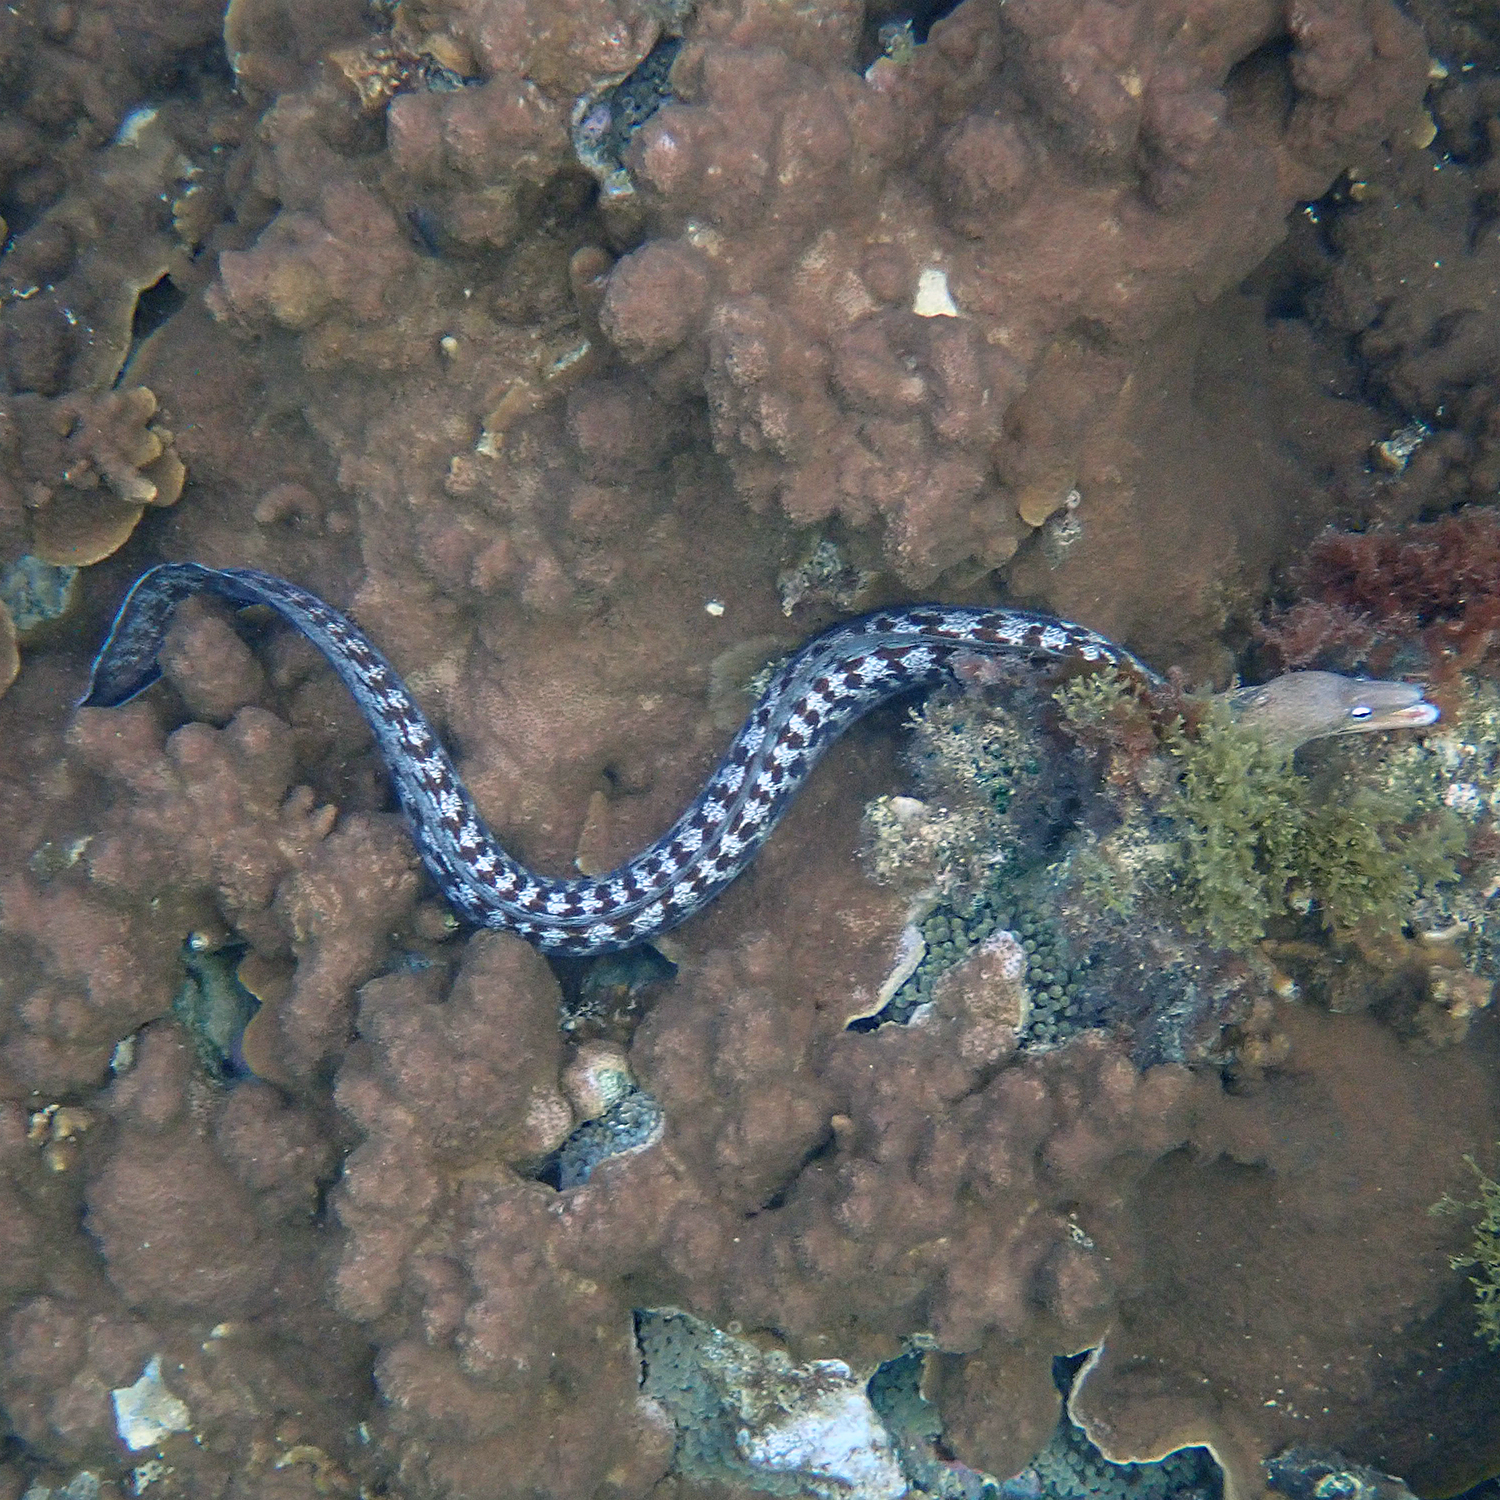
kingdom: Animalia
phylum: Chordata
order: Anguilliformes
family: Muraenidae
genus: Gymnothorax
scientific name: Gymnothorax nubilus
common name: Grey moray
